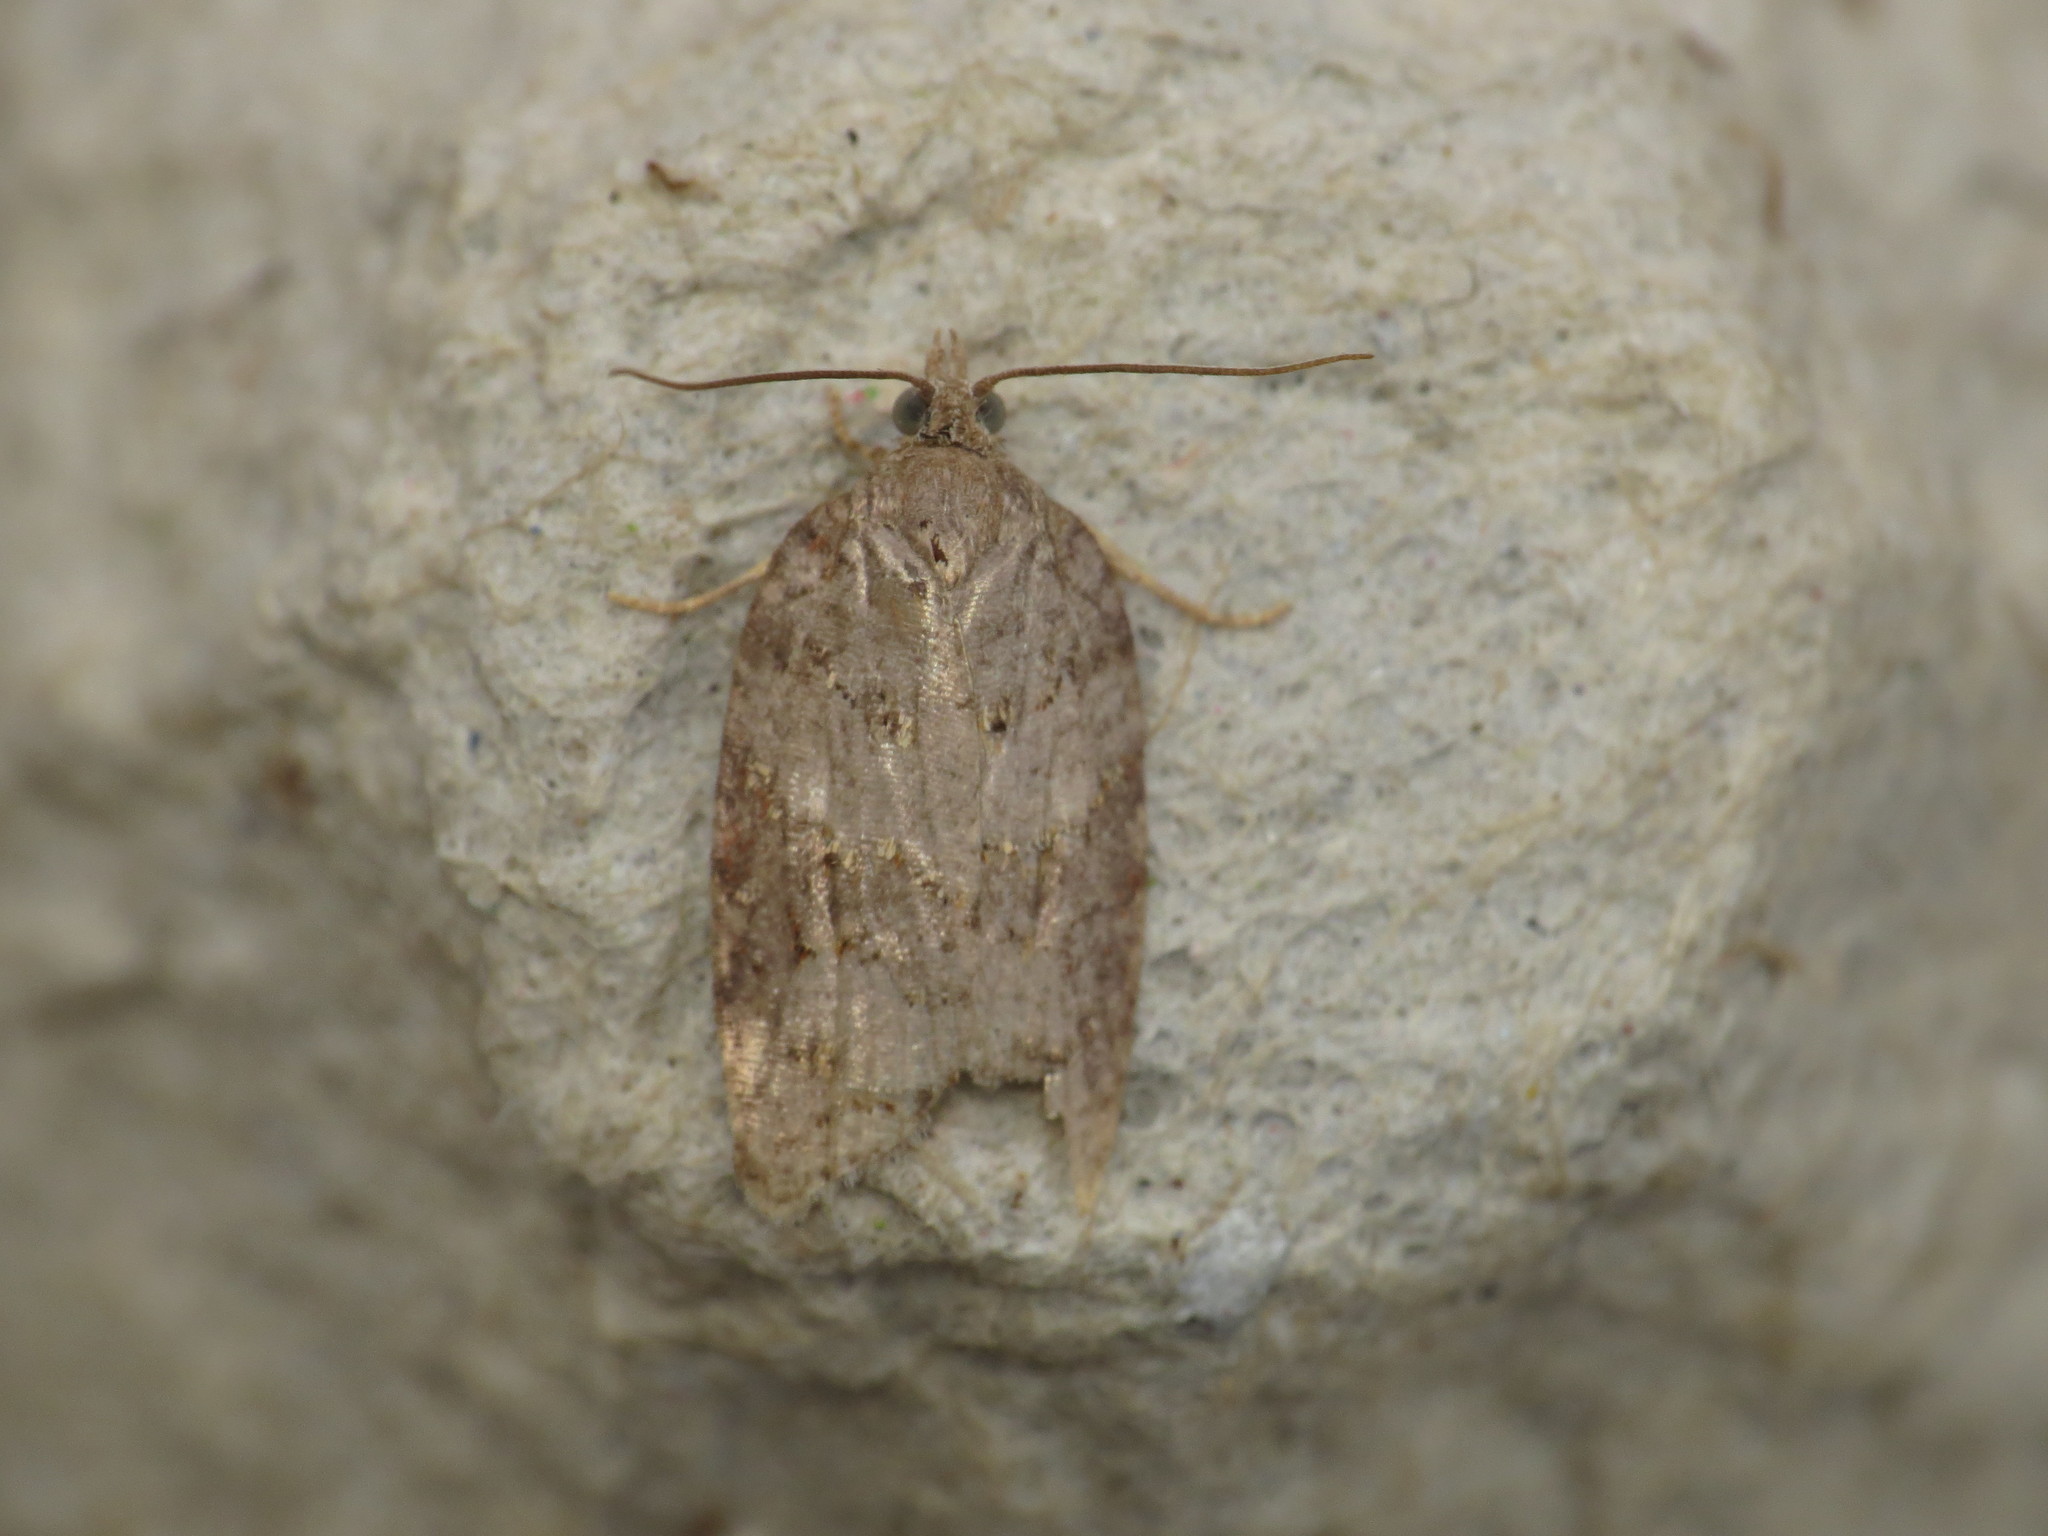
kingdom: Animalia
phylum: Arthropoda
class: Insecta
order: Lepidoptera
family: Tortricidae
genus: Acleris
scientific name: Acleris sparsana
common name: Ashy button
